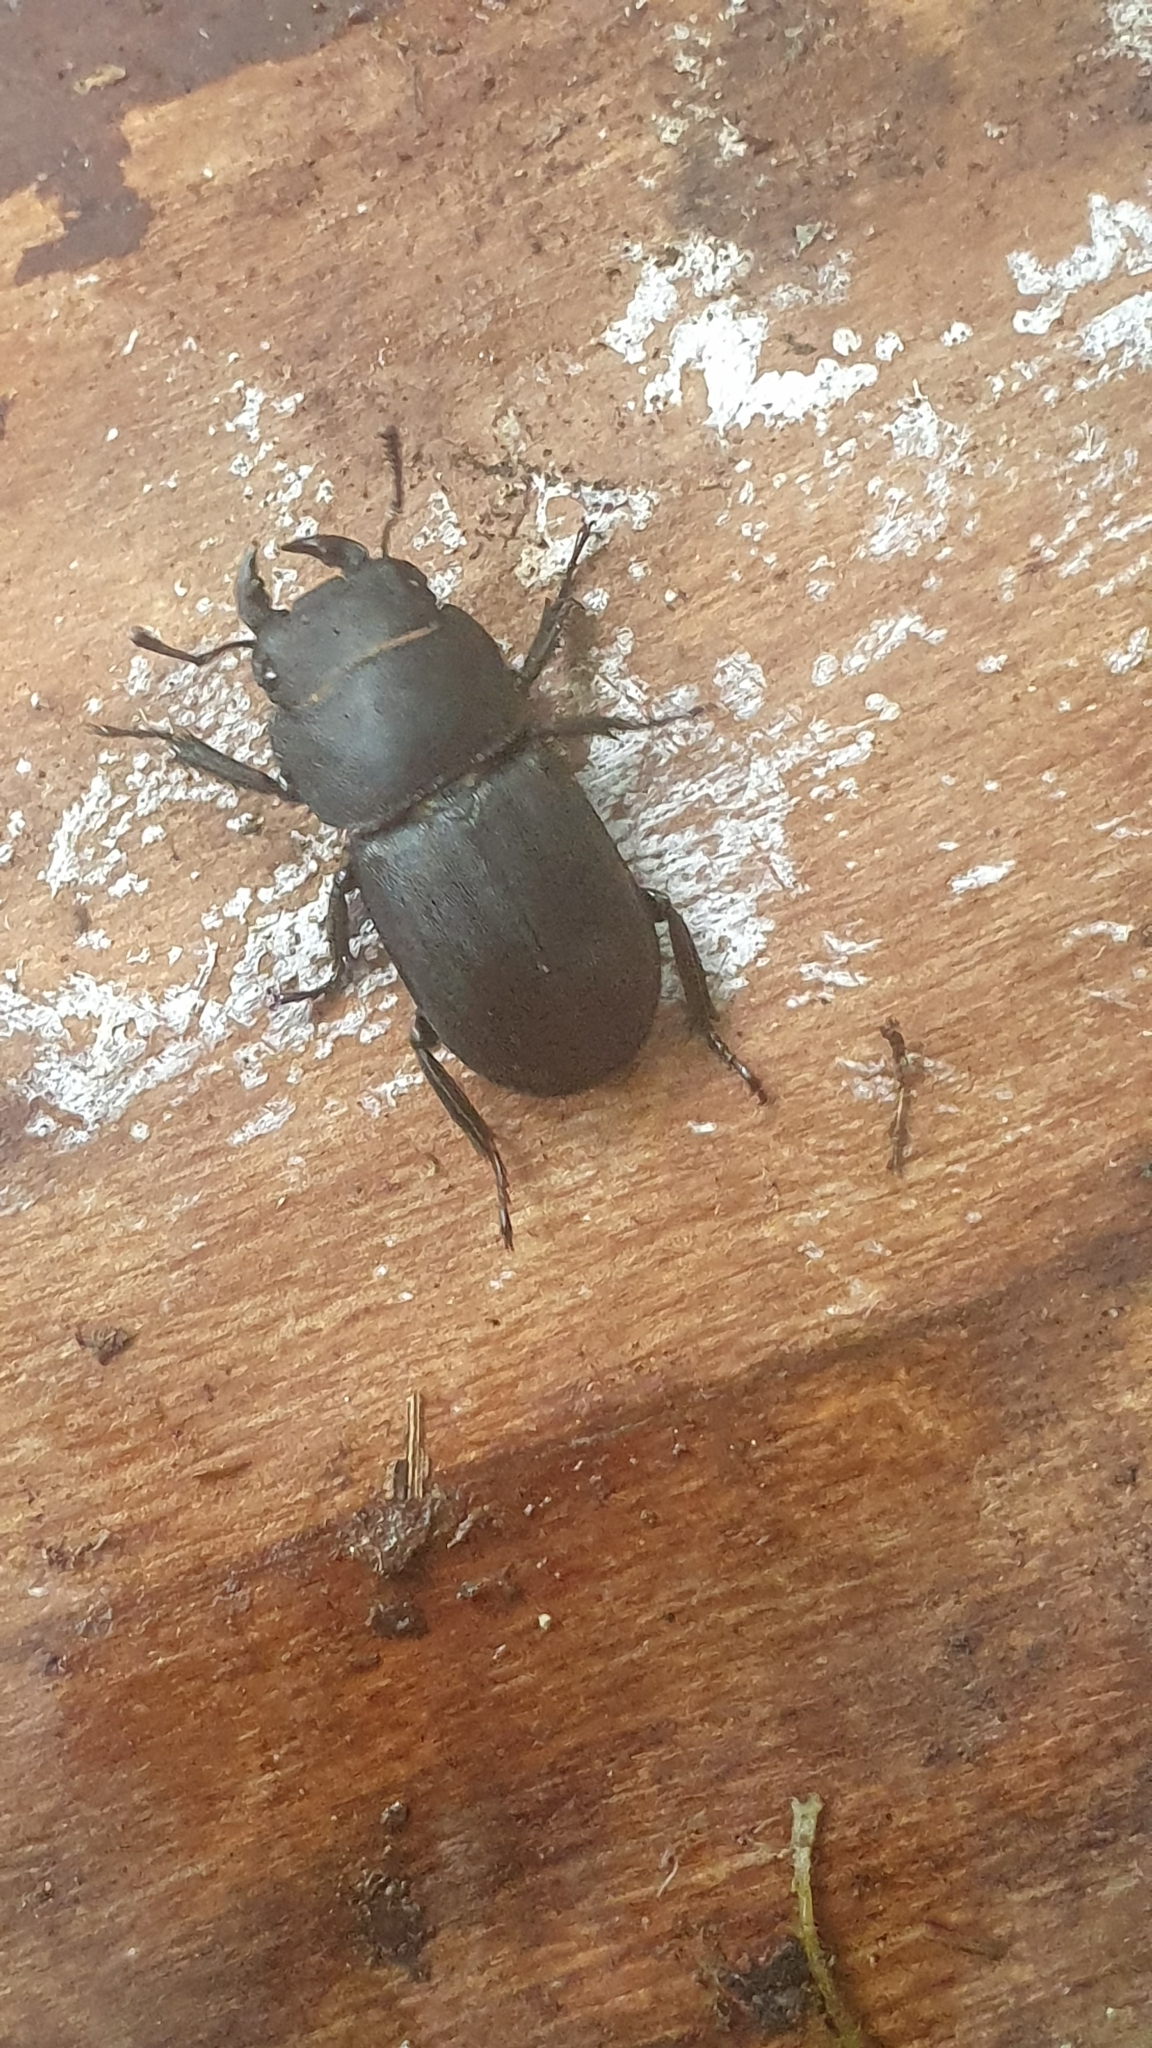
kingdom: Animalia
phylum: Arthropoda
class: Insecta
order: Coleoptera
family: Lucanidae
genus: Dorcus
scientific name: Dorcus parallelipipedus
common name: Lesser stag beetle
